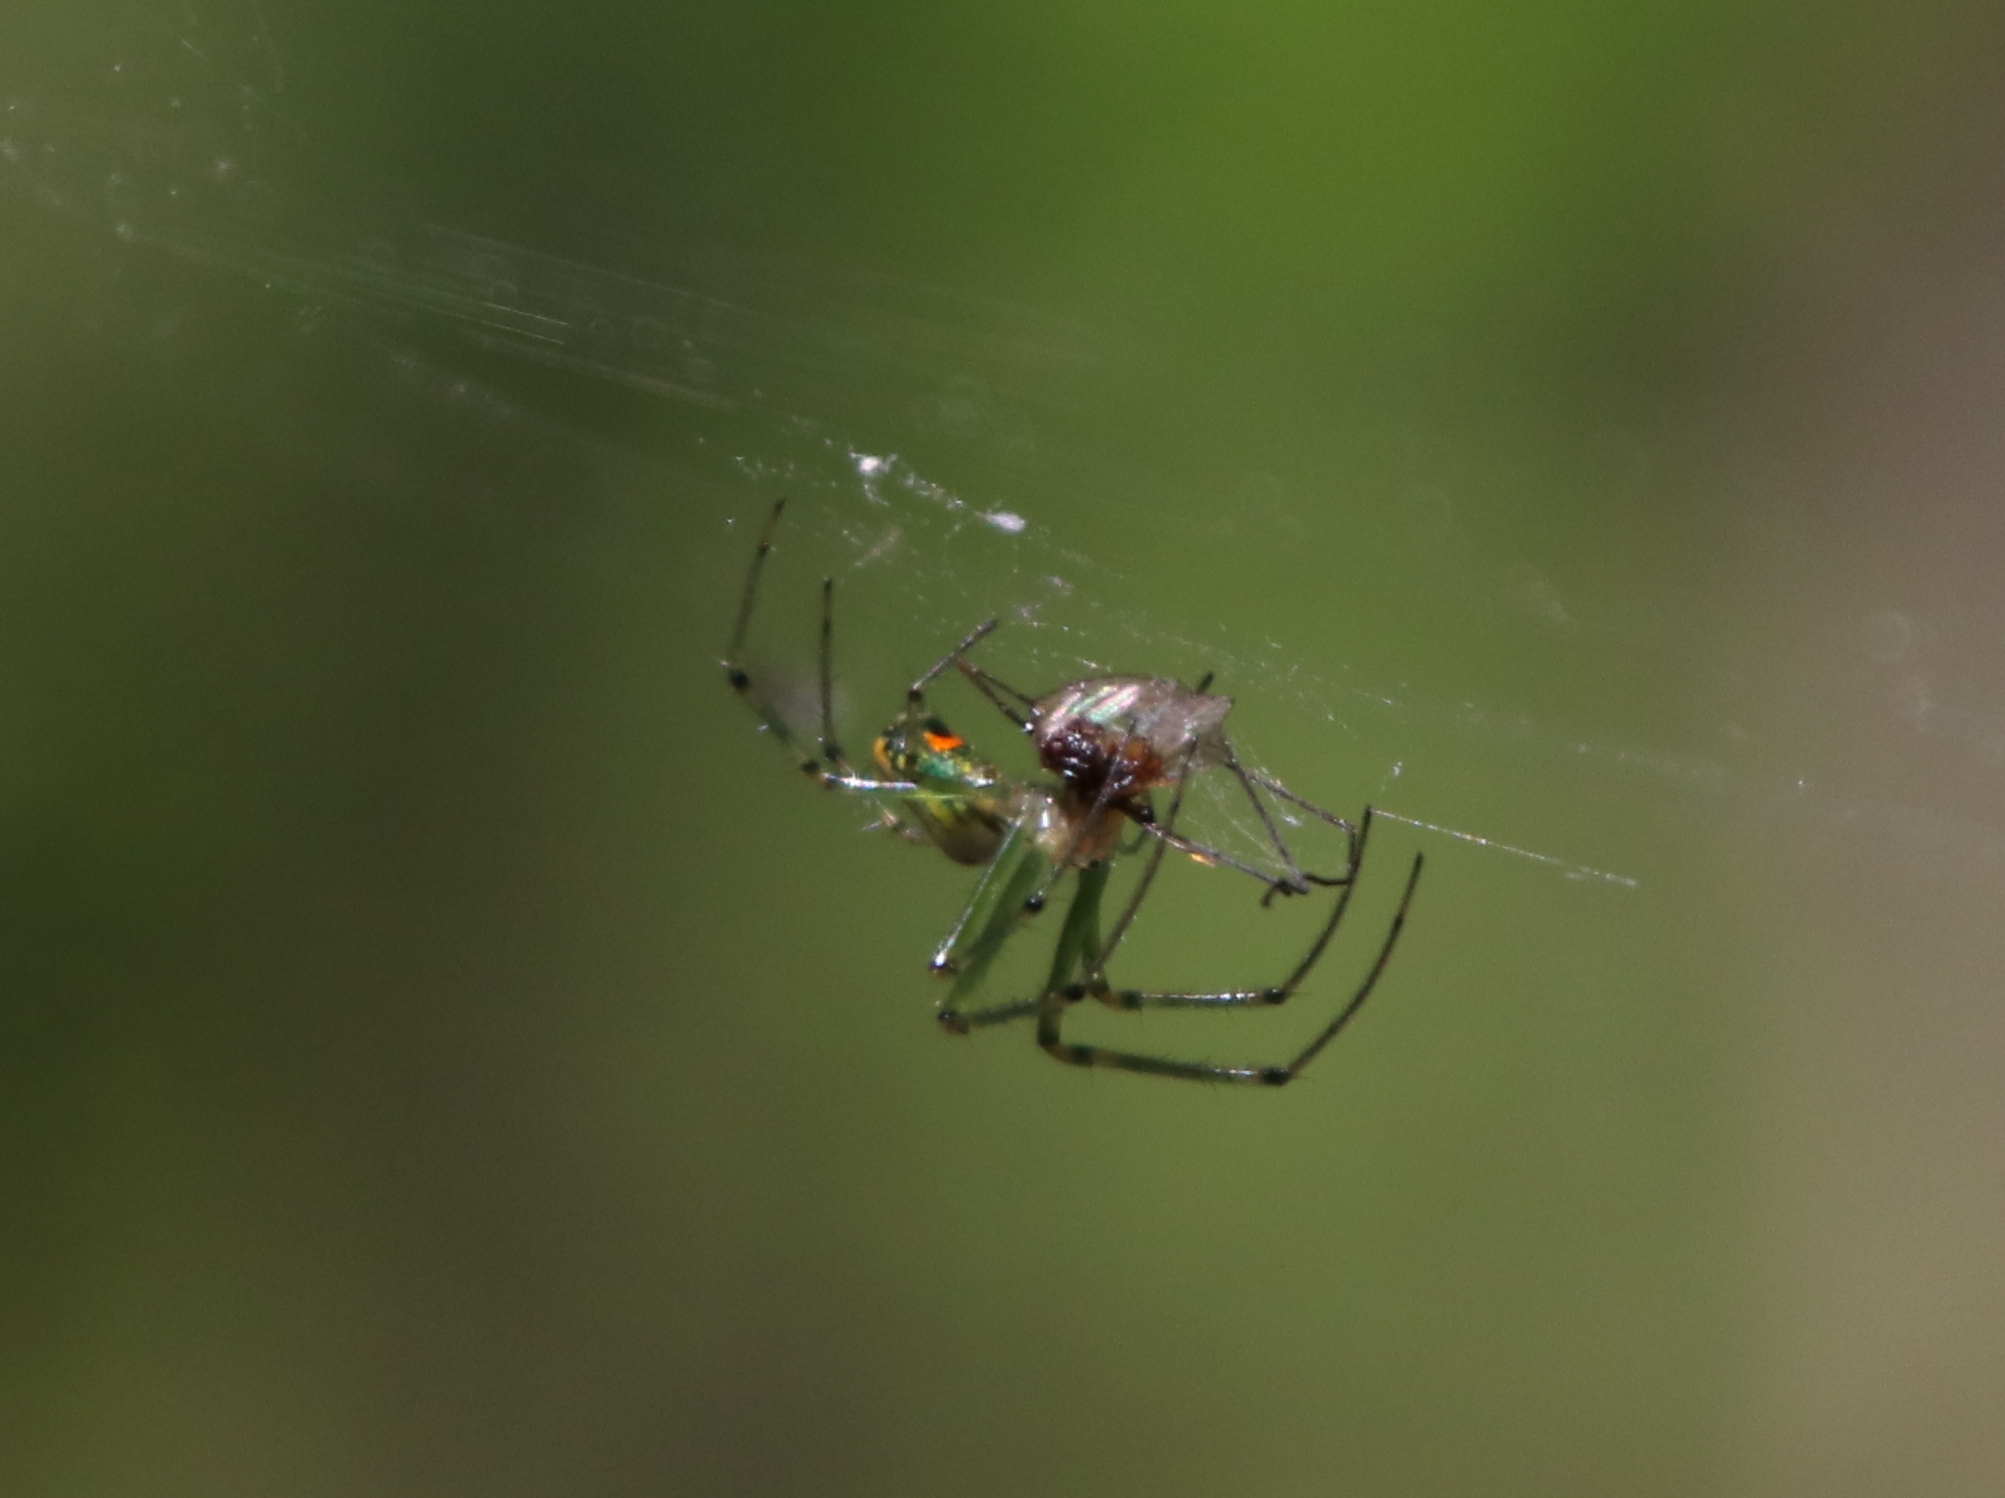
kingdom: Animalia
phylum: Arthropoda
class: Arachnida
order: Araneae
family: Tetragnathidae
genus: Leucauge
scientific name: Leucauge argyrobapta
